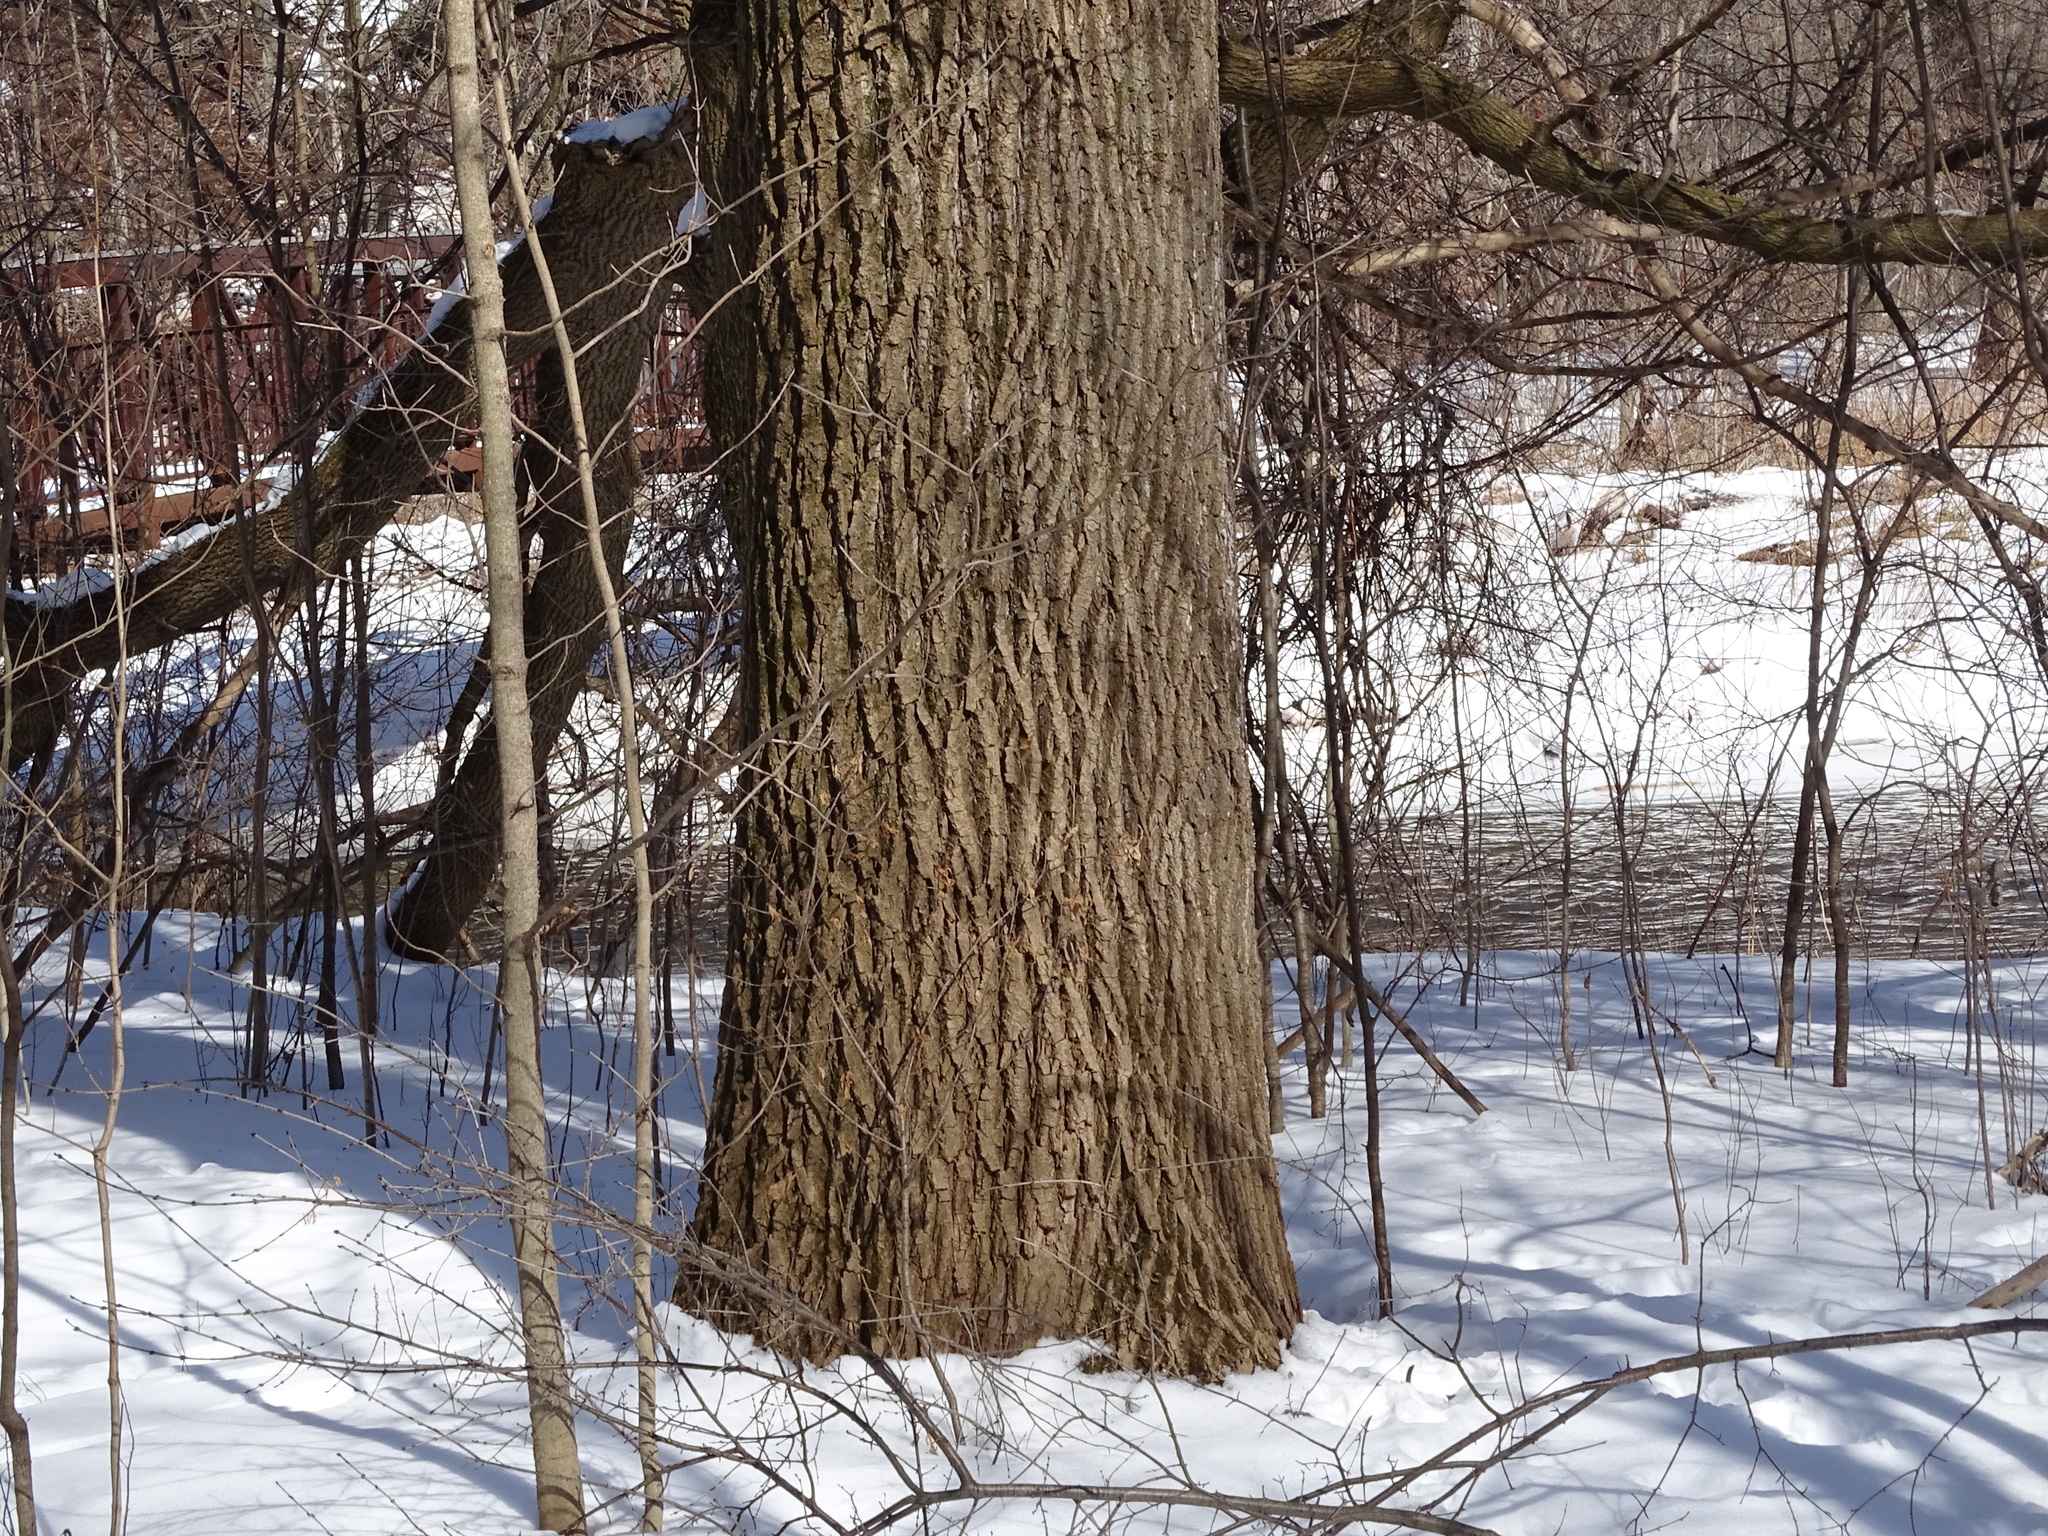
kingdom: Plantae
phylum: Tracheophyta
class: Magnoliopsida
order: Malpighiales
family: Salicaceae
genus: Populus
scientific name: Populus deltoides
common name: Eastern cottonwood
